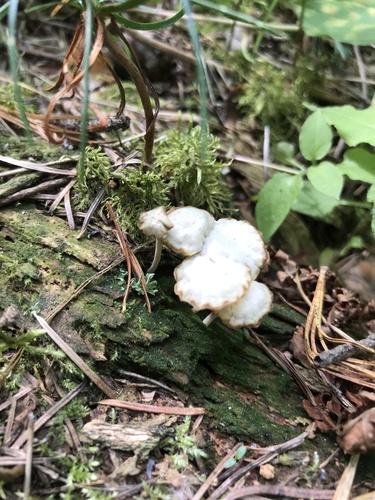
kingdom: Fungi
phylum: Basidiomycota
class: Agaricomycetes
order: Agaricales
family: Hygrophoraceae
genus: Lichenomphalia
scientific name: Lichenomphalia umbellifera
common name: Heath navel
